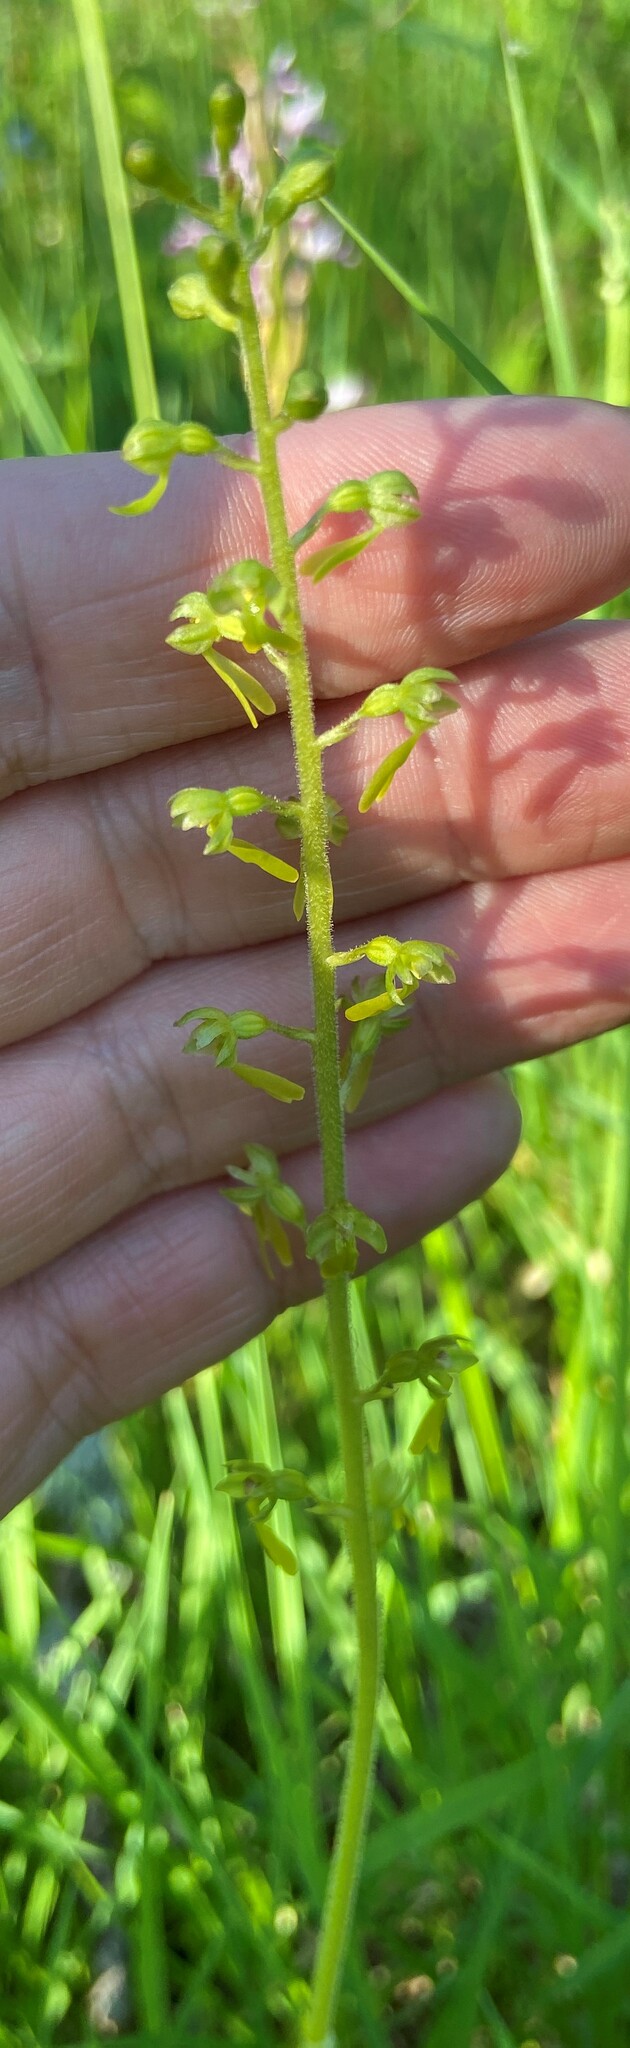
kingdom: Plantae
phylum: Tracheophyta
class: Liliopsida
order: Asparagales
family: Orchidaceae
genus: Neottia
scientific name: Neottia ovata
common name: Common twayblade
